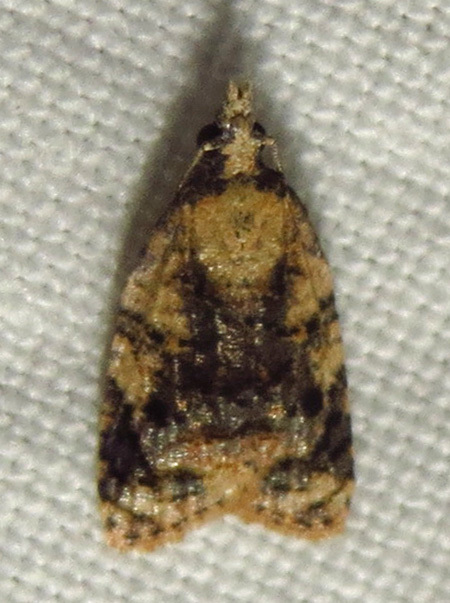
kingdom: Animalia
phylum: Arthropoda
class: Insecta
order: Lepidoptera
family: Tortricidae
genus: Platynota
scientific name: Platynota exasperatana
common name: Exasperating platynota moth
